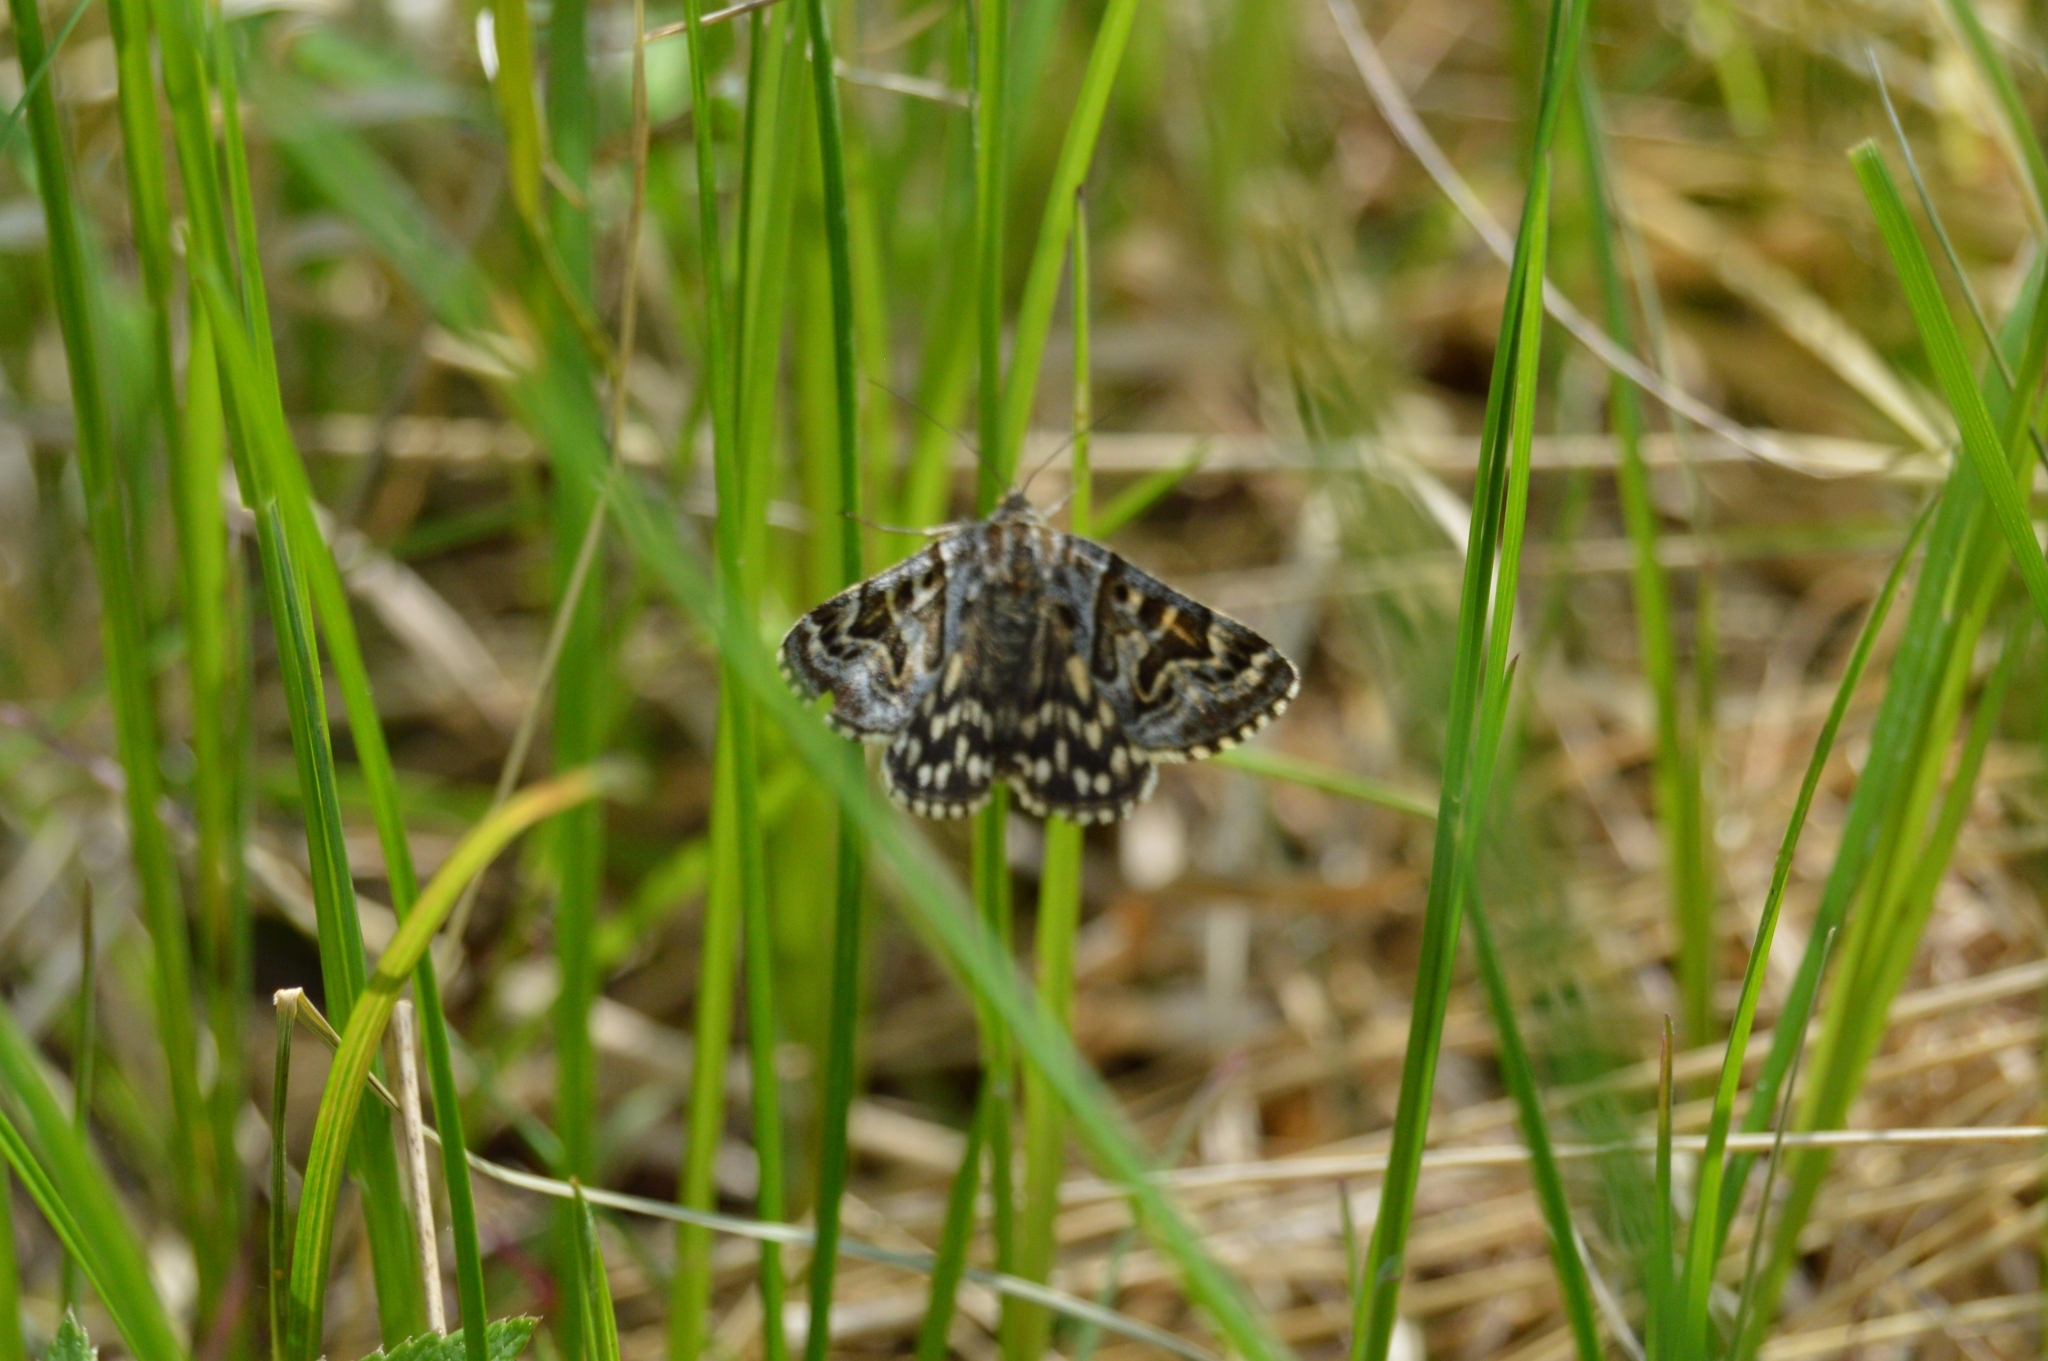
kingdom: Animalia
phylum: Arthropoda
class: Insecta
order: Lepidoptera
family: Erebidae
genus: Callistege
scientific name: Callistege mi
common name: Mother shipton
